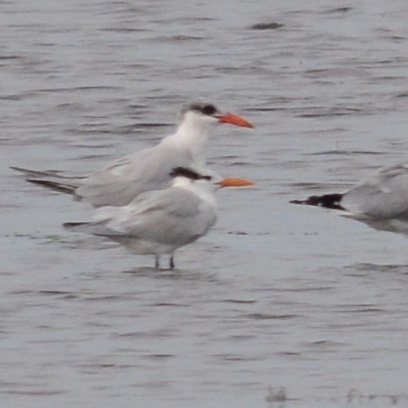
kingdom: Animalia
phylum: Chordata
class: Aves
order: Charadriiformes
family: Laridae
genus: Hydroprogne
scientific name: Hydroprogne caspia
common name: Caspian tern
